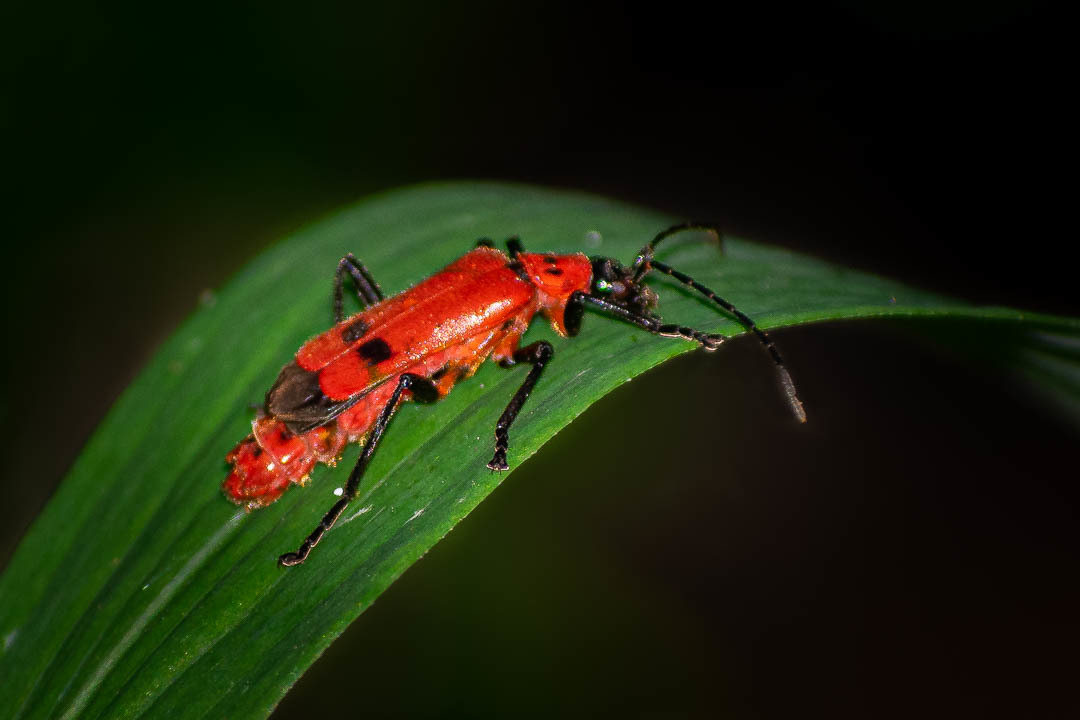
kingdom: Animalia
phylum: Arthropoda
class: Insecta
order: Coleoptera
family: Cantharidae
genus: Chauliognathus
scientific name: Chauliognathus
